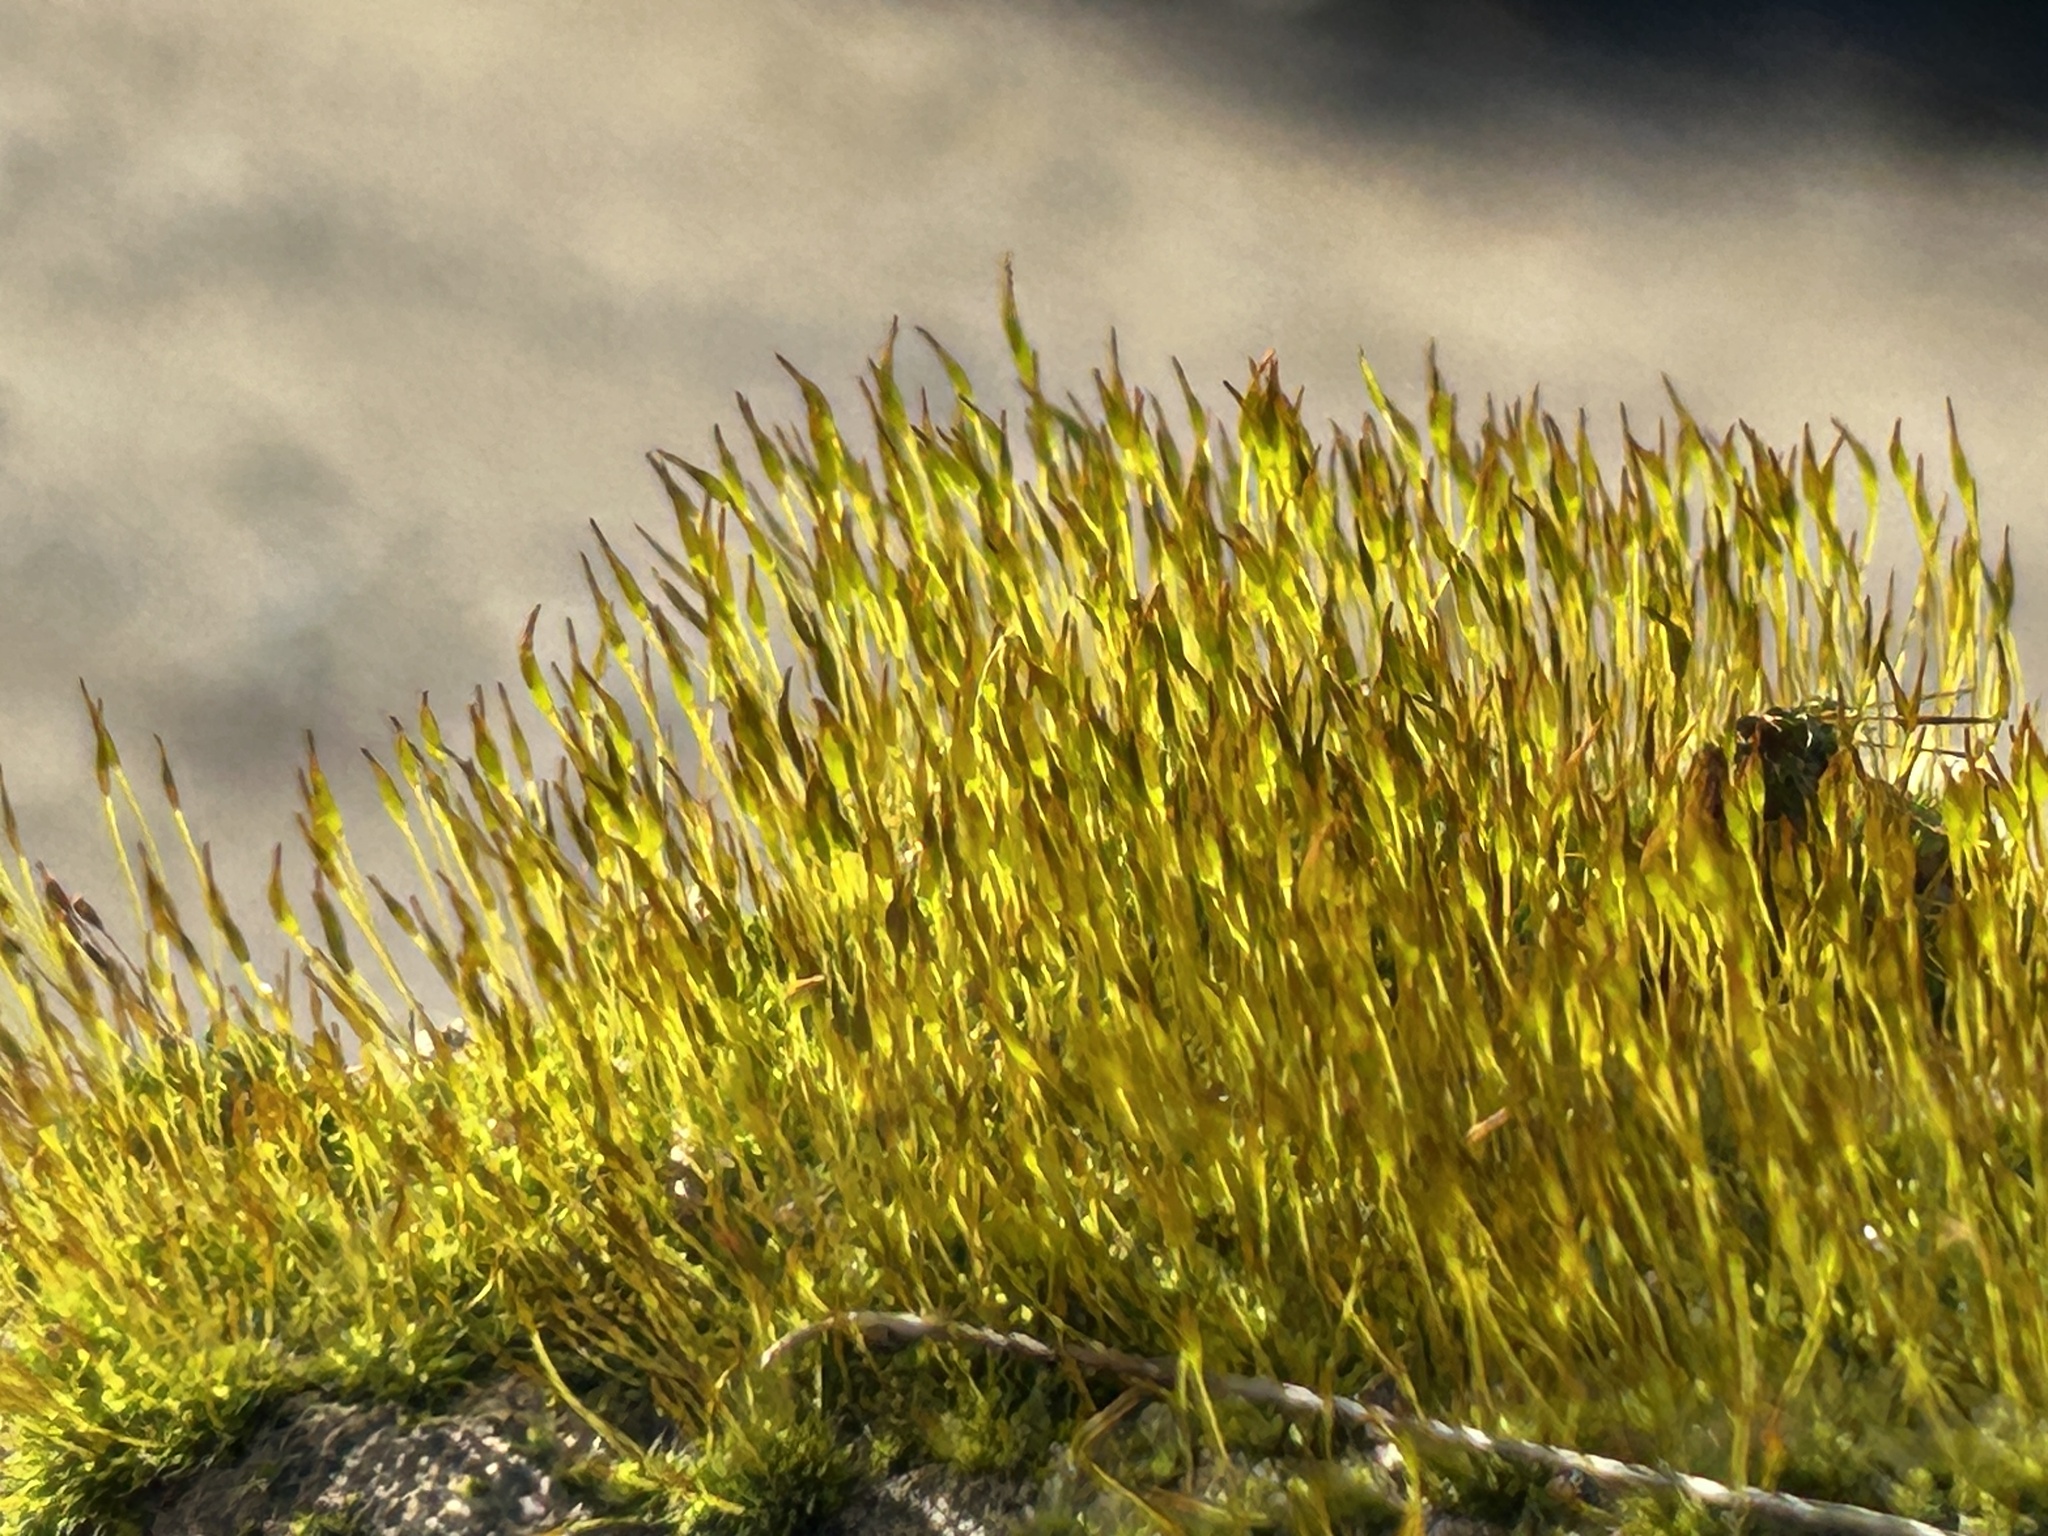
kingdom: Plantae
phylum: Bryophyta
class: Bryopsida
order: Pottiales
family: Pottiaceae
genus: Tortula
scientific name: Tortula muralis
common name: Wall screw-moss
